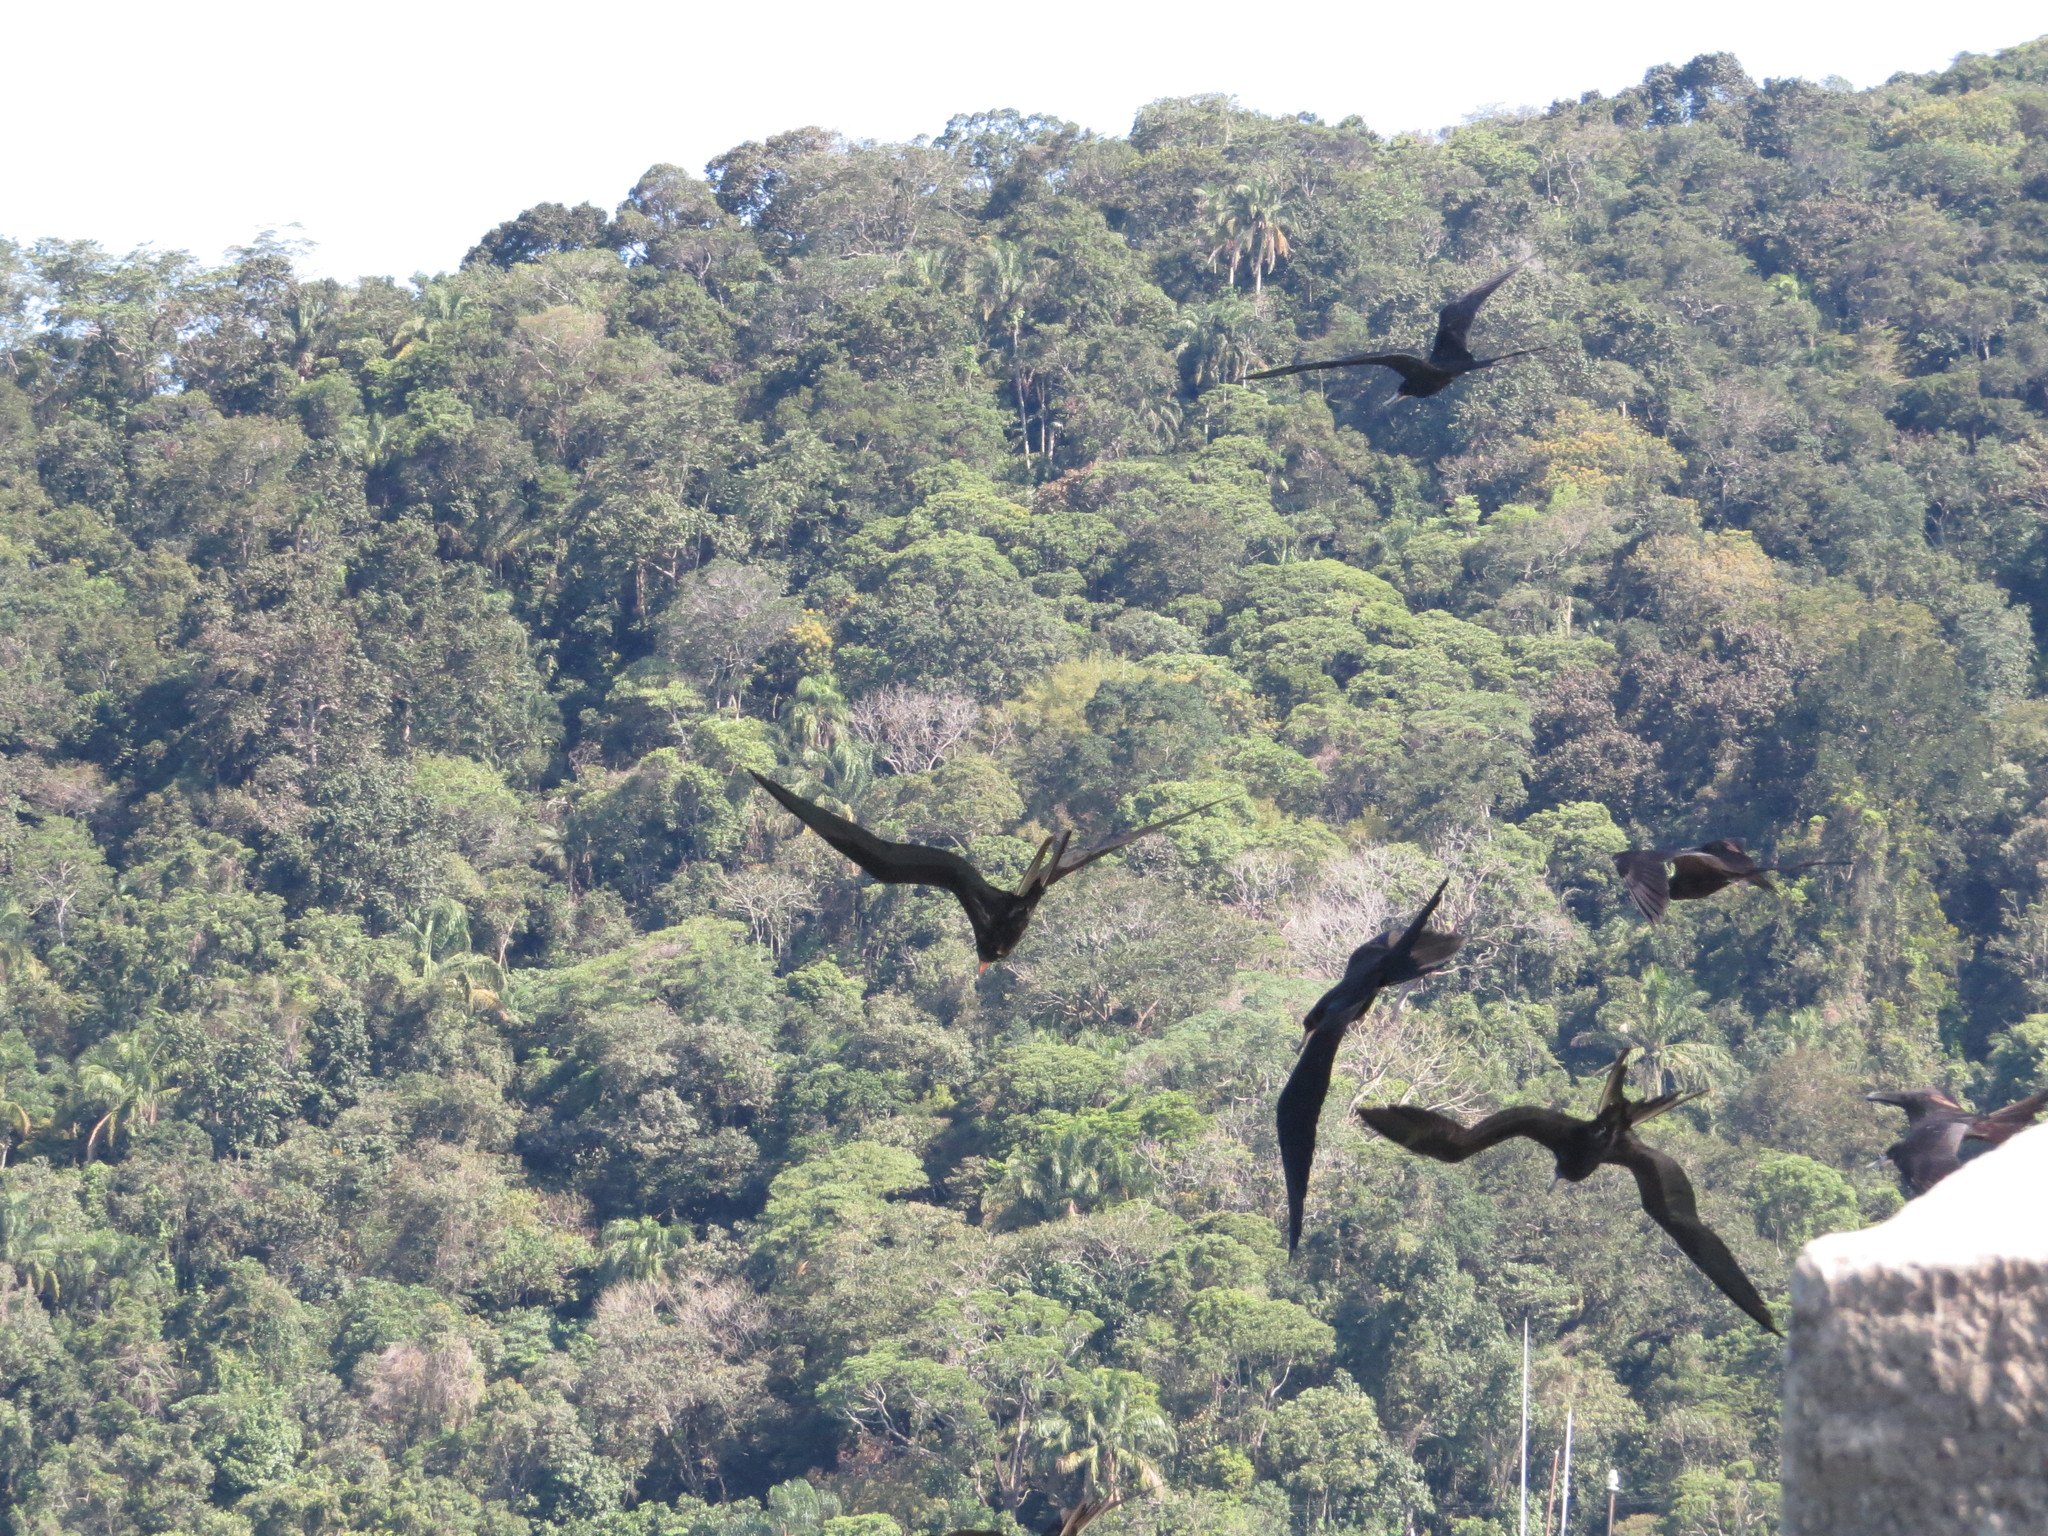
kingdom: Animalia
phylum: Chordata
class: Aves
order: Suliformes
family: Fregatidae
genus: Fregata
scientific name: Fregata magnificens
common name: Magnificent frigatebird
